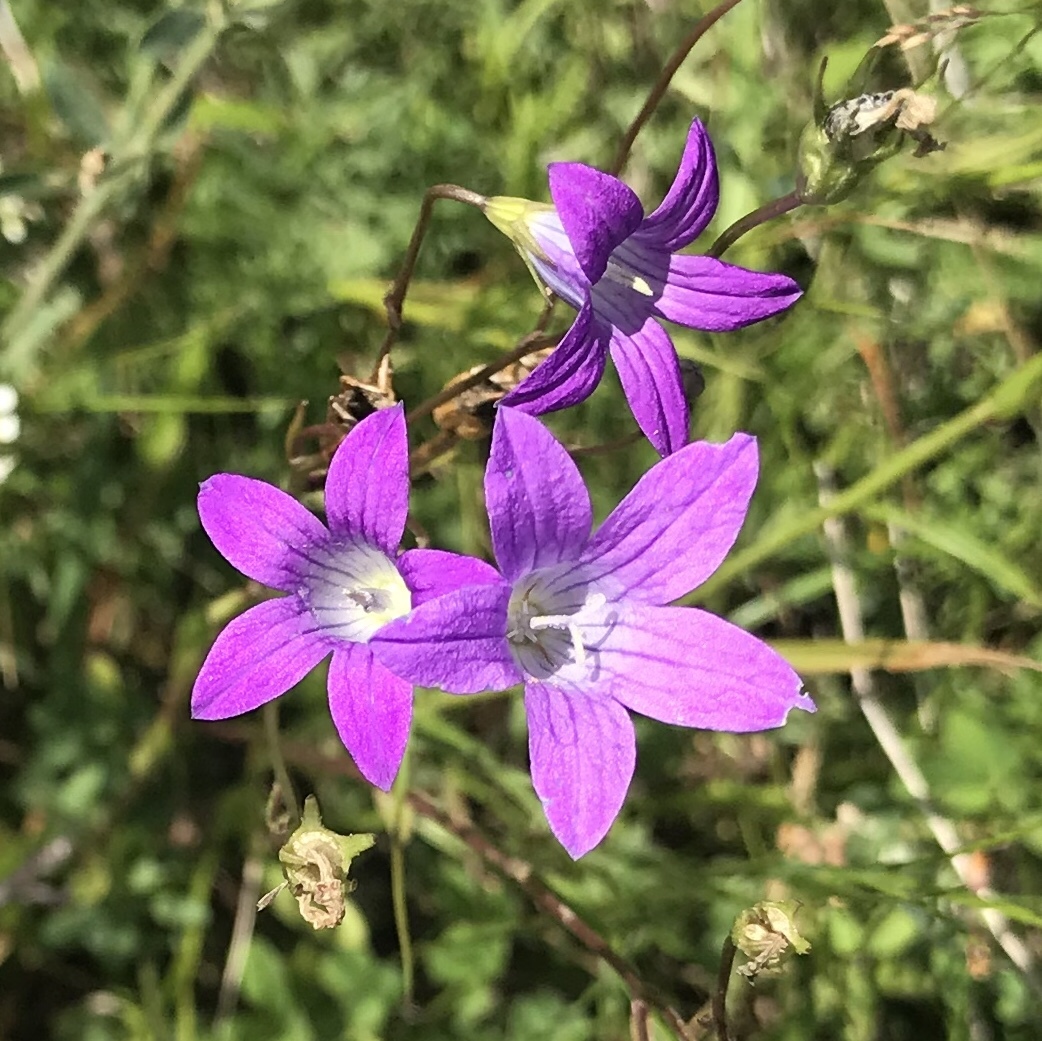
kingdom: Plantae
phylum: Tracheophyta
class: Magnoliopsida
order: Asterales
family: Campanulaceae
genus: Campanula
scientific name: Campanula patula
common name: Spreading bellflower
